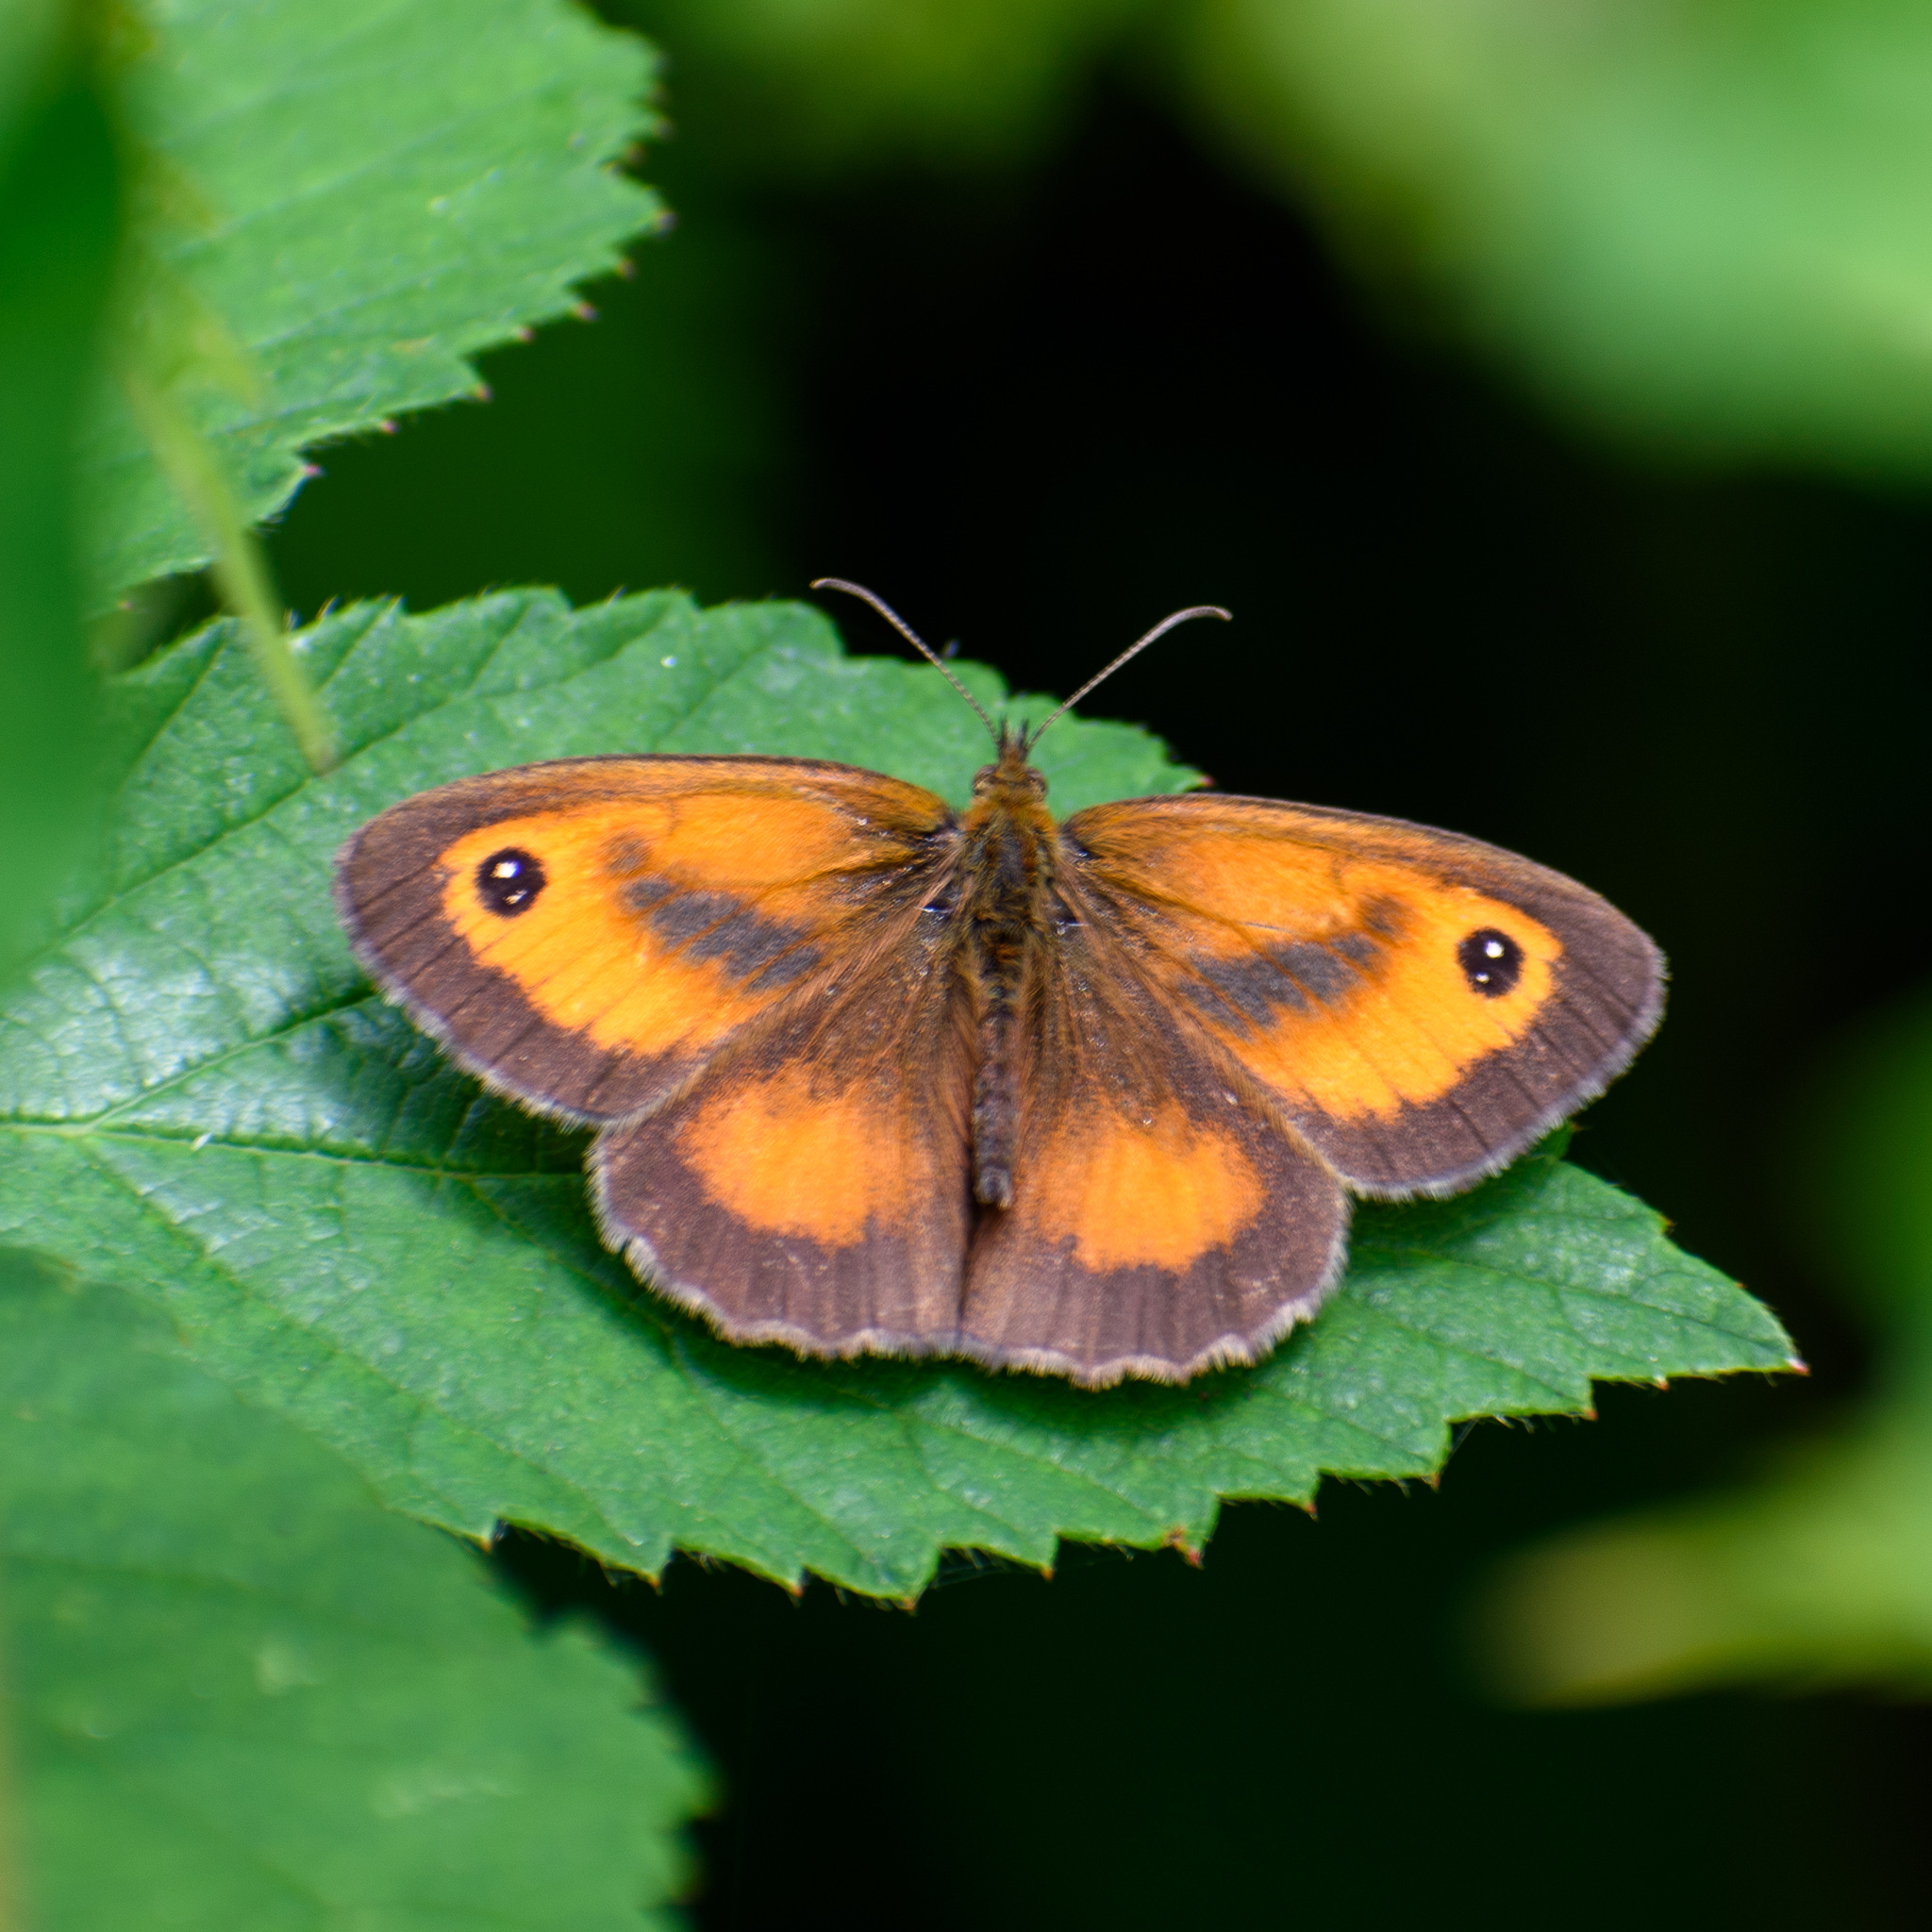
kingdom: Animalia
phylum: Arthropoda
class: Insecta
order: Lepidoptera
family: Nymphalidae
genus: Pyronia
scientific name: Pyronia tithonus
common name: Gatekeeper
